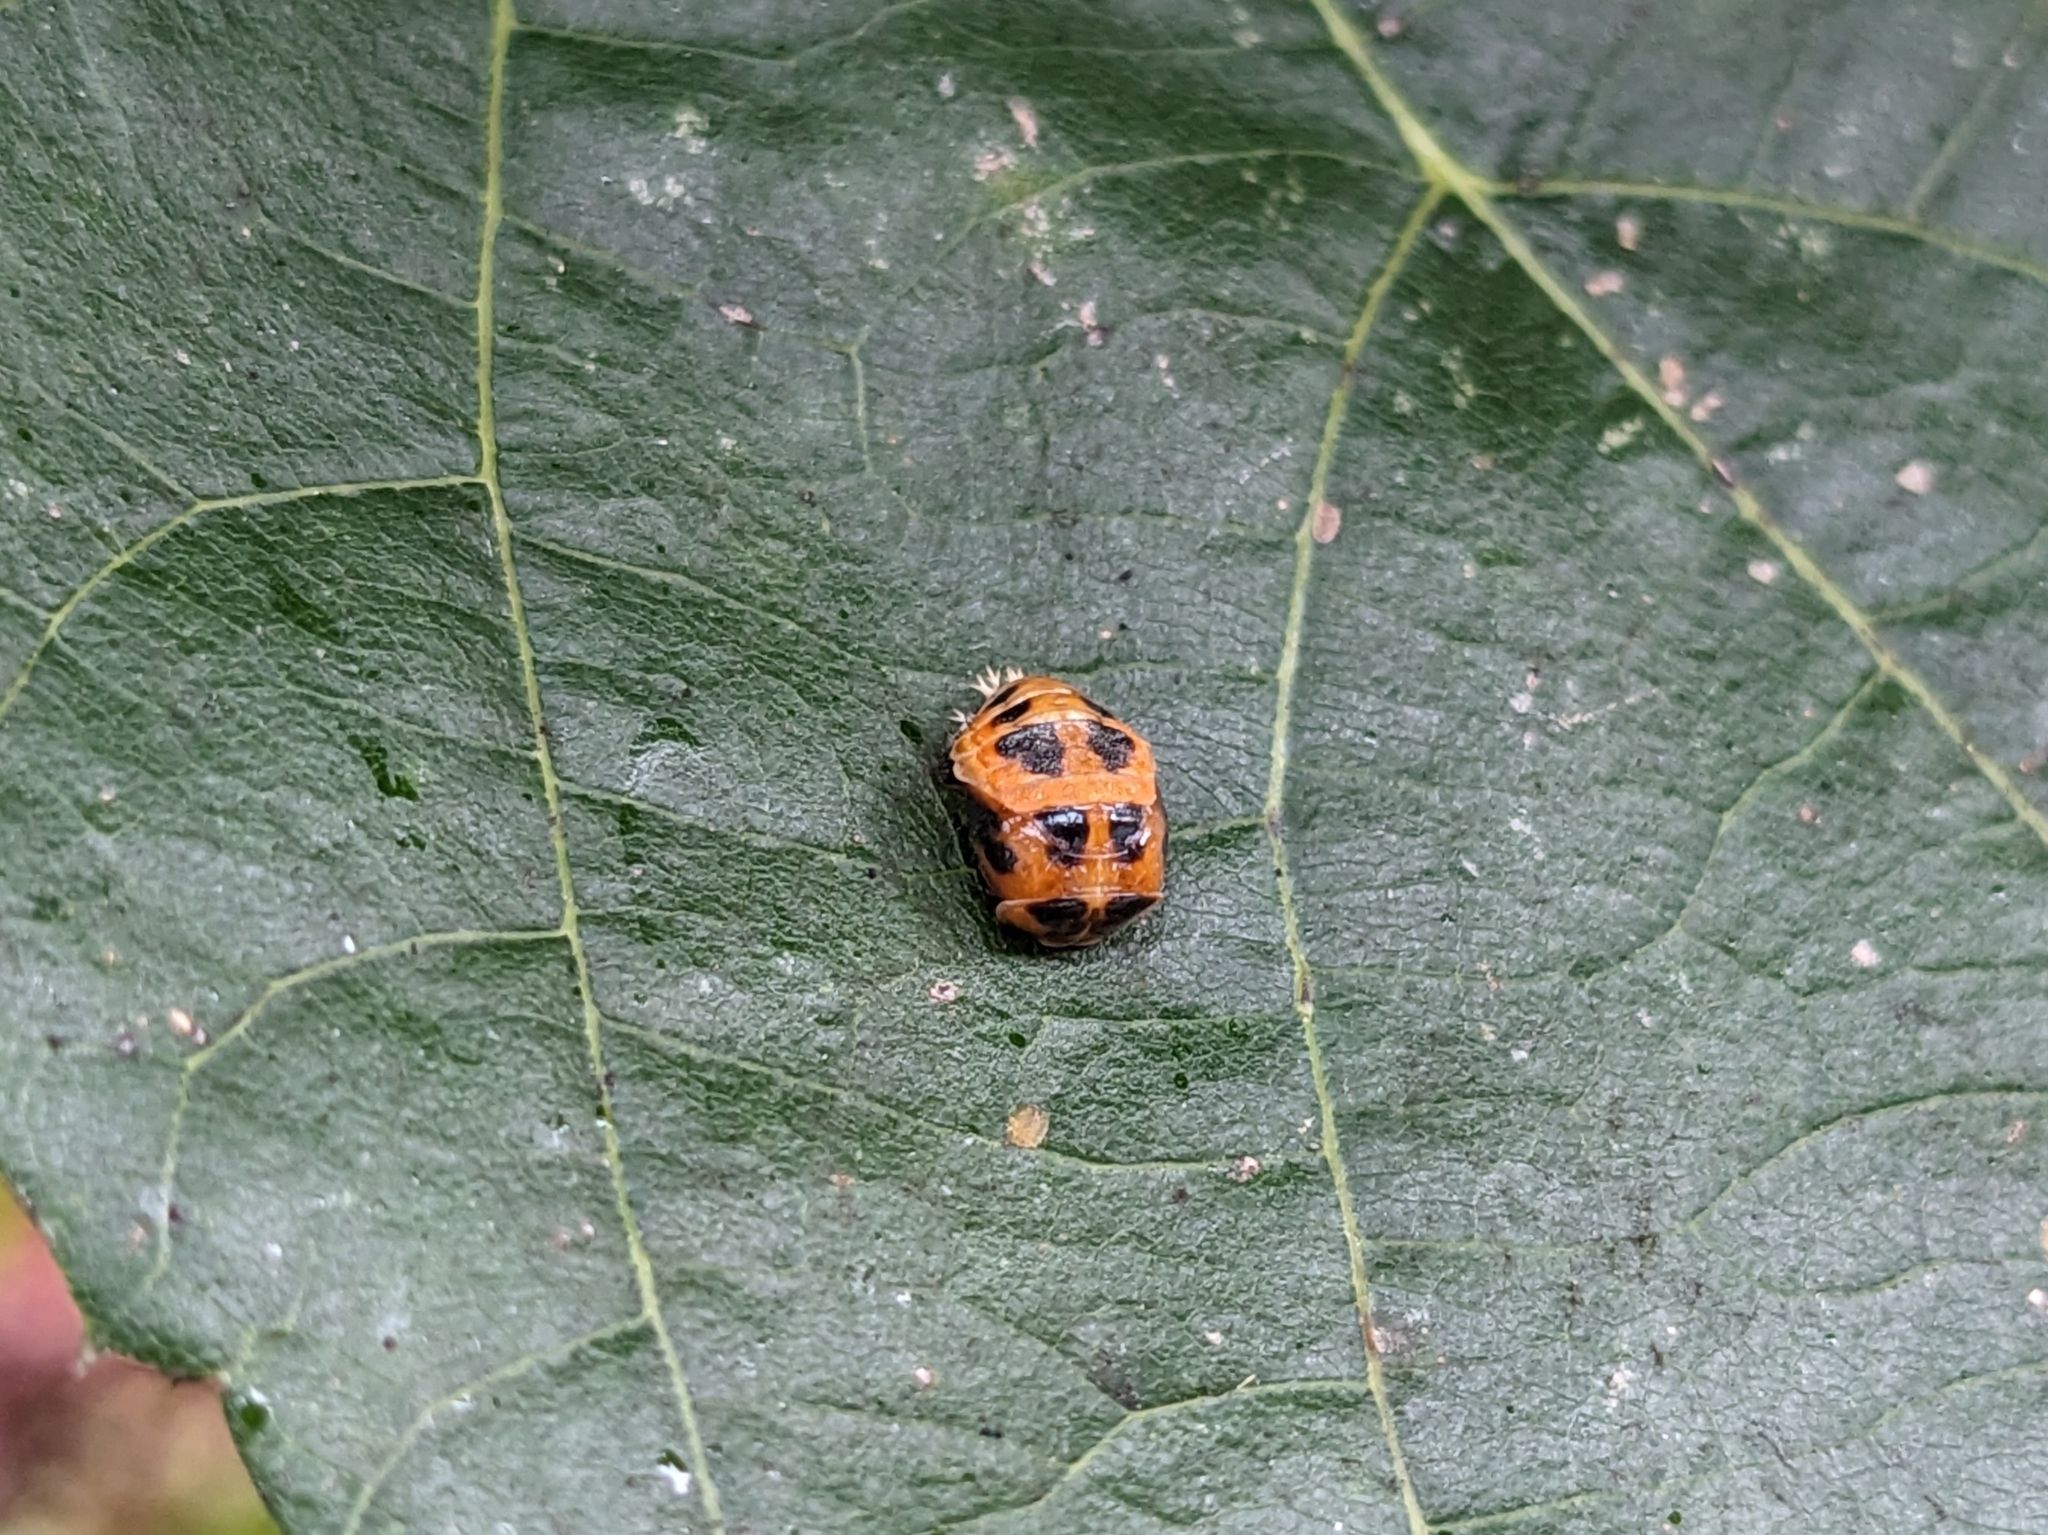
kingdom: Animalia
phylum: Arthropoda
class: Insecta
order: Coleoptera
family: Coccinellidae
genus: Harmonia
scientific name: Harmonia axyridis
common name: Harlequin ladybird
